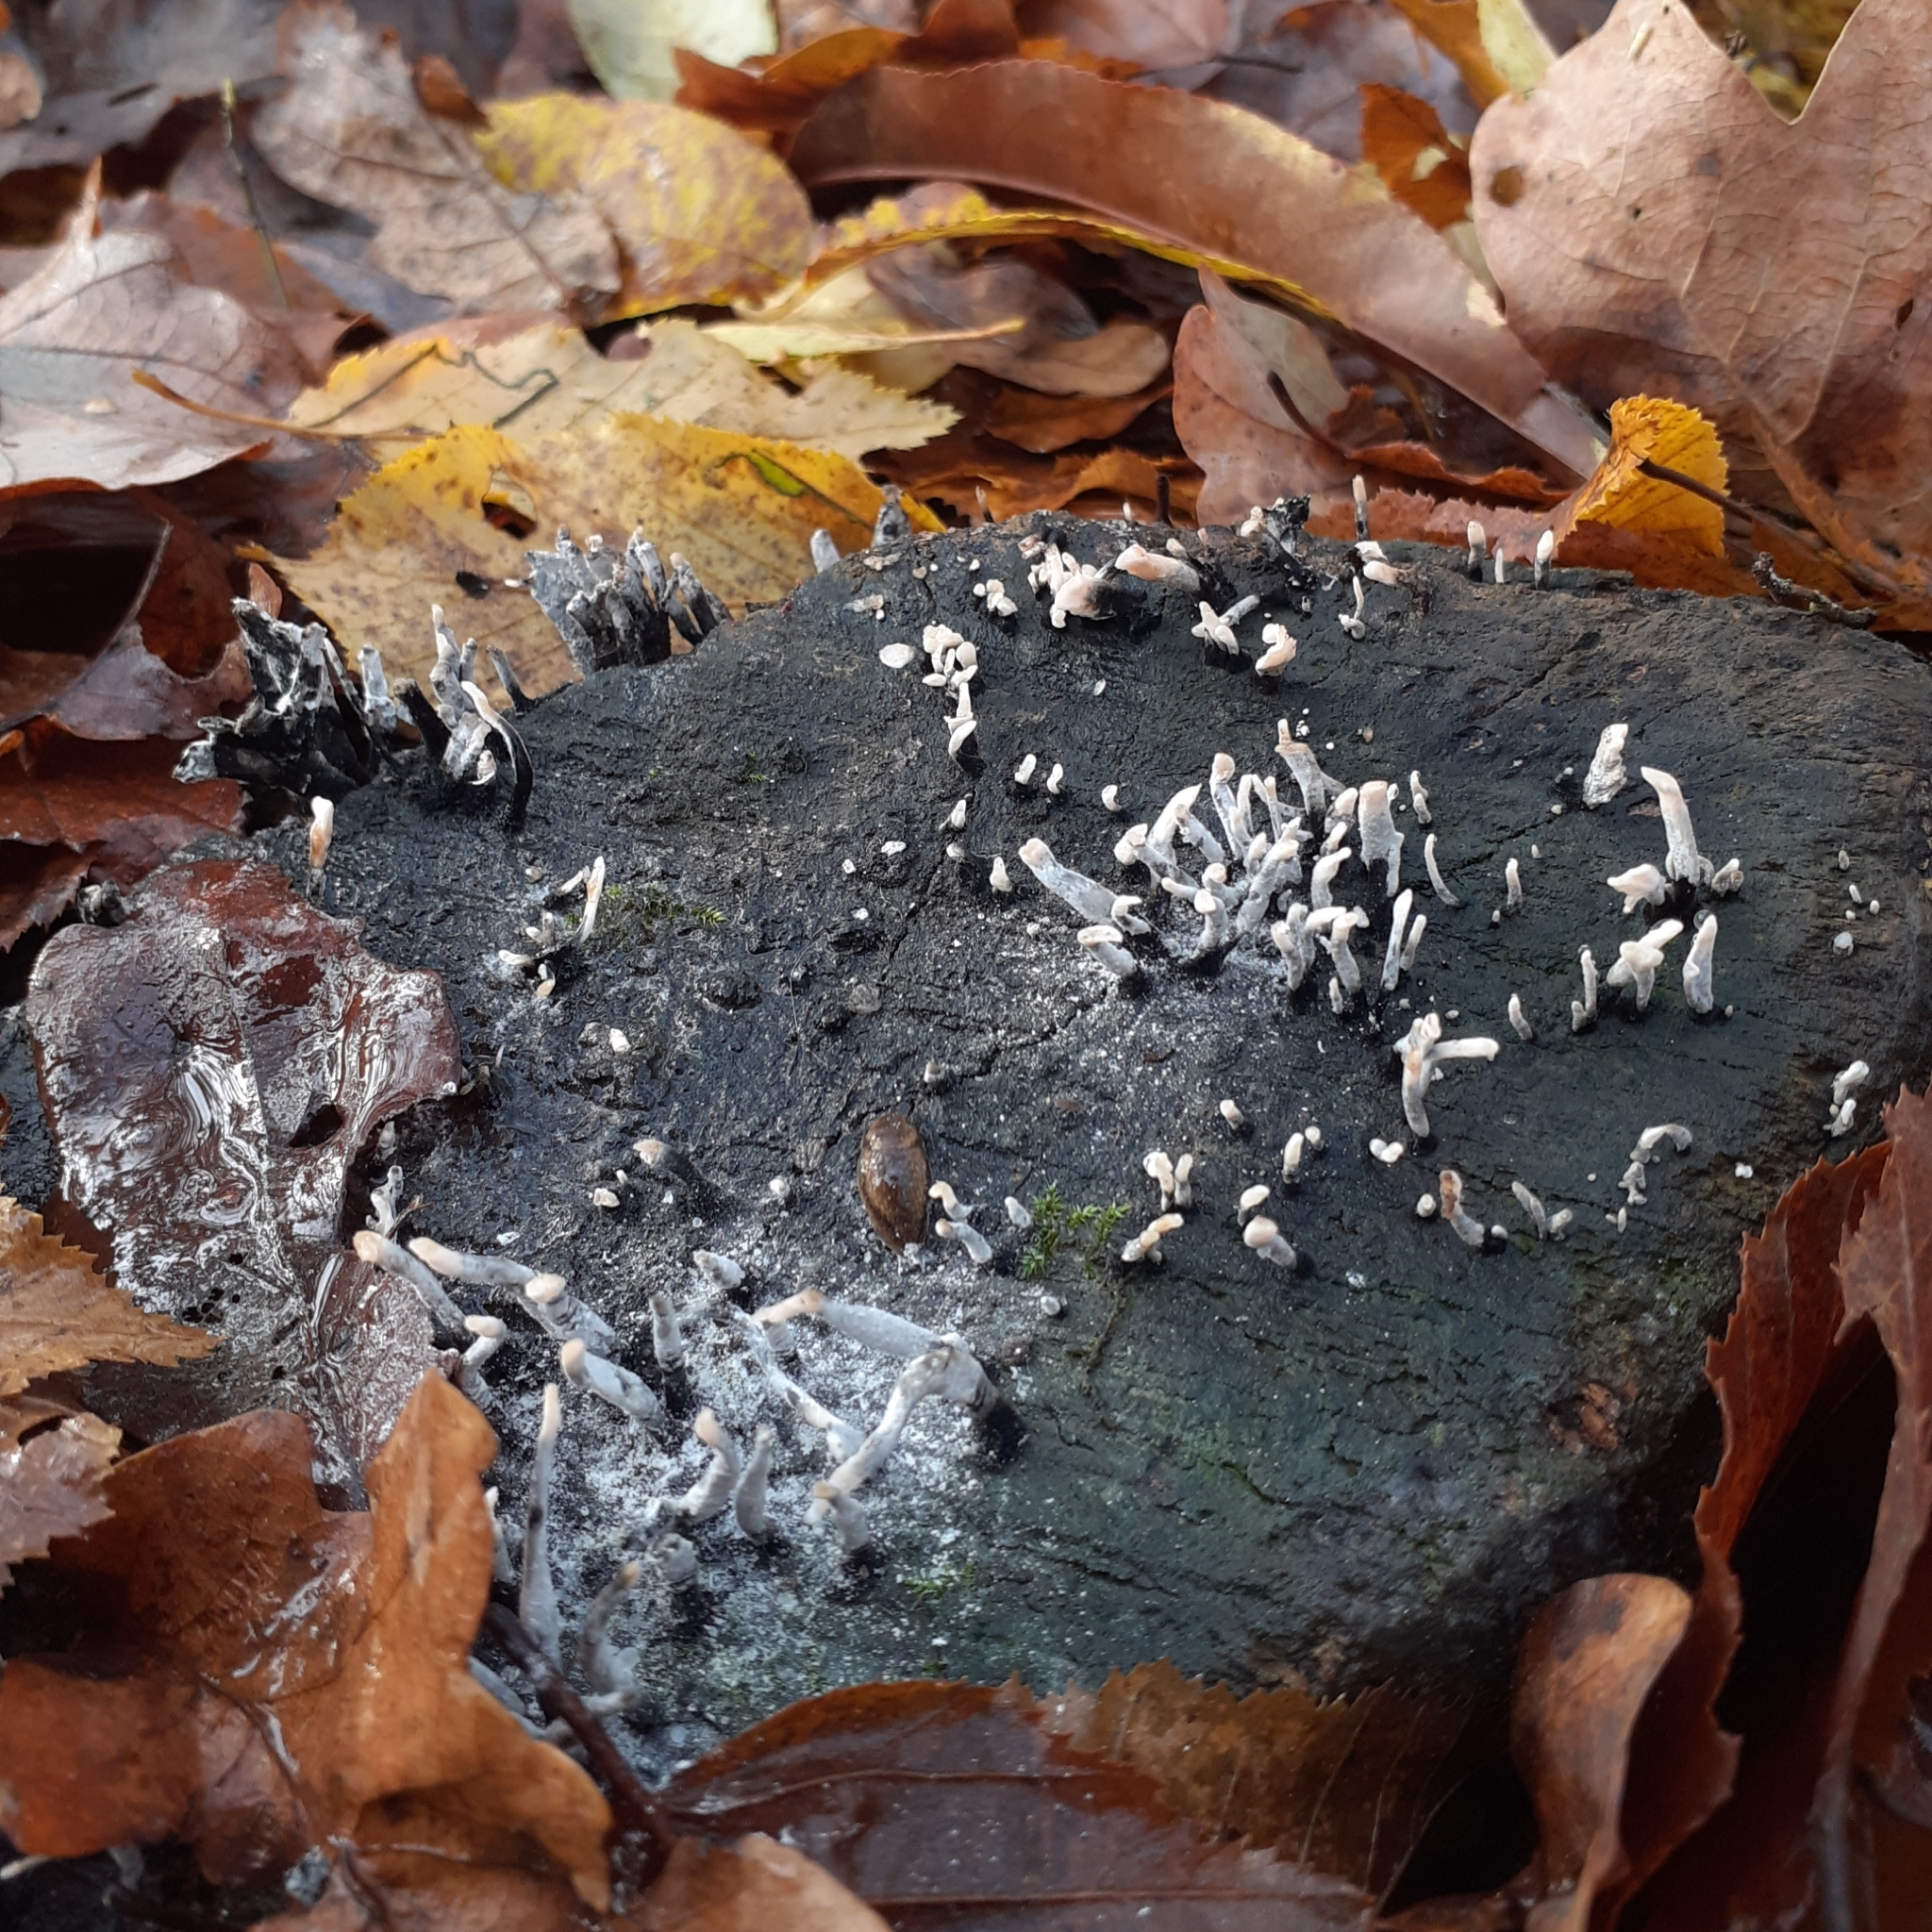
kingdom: Fungi
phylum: Ascomycota
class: Sordariomycetes
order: Xylariales
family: Xylariaceae
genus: Xylaria
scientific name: Xylaria hypoxylon
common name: Candle-snuff fungus
